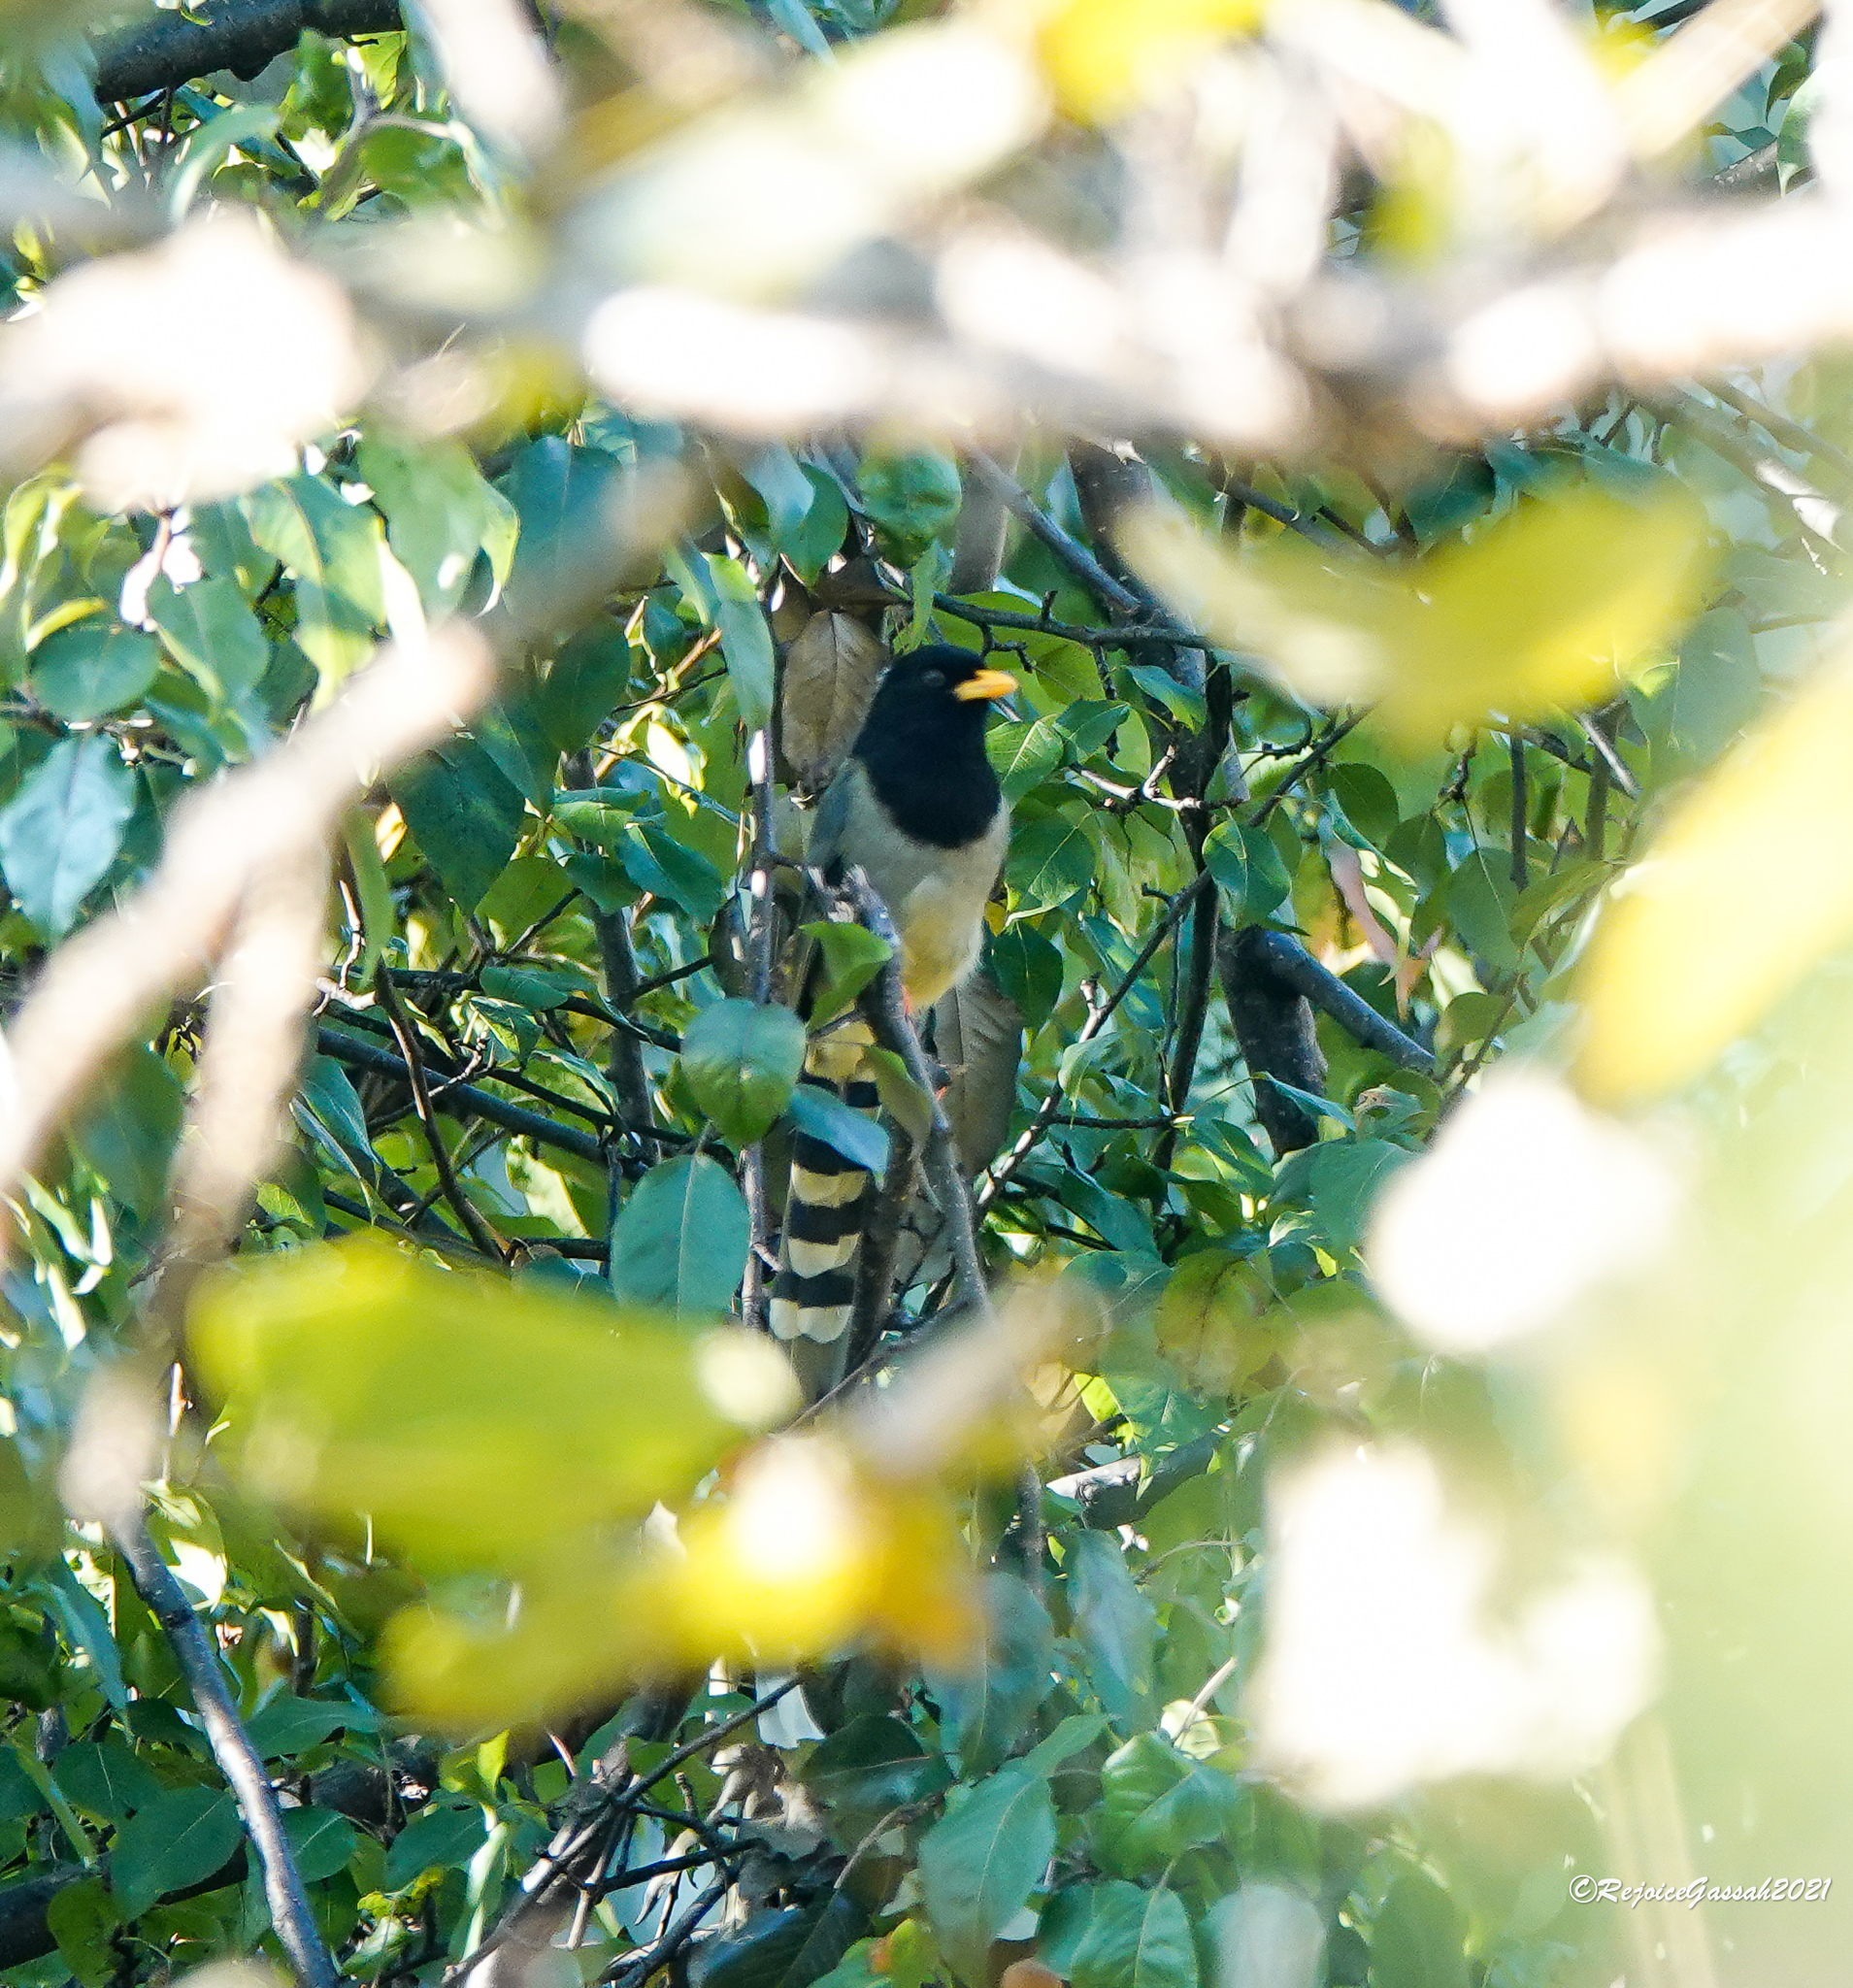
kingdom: Animalia
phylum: Chordata
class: Aves
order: Passeriformes
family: Corvidae
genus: Urocissa
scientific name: Urocissa flavirostris
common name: Yellow-billed blue magpie
